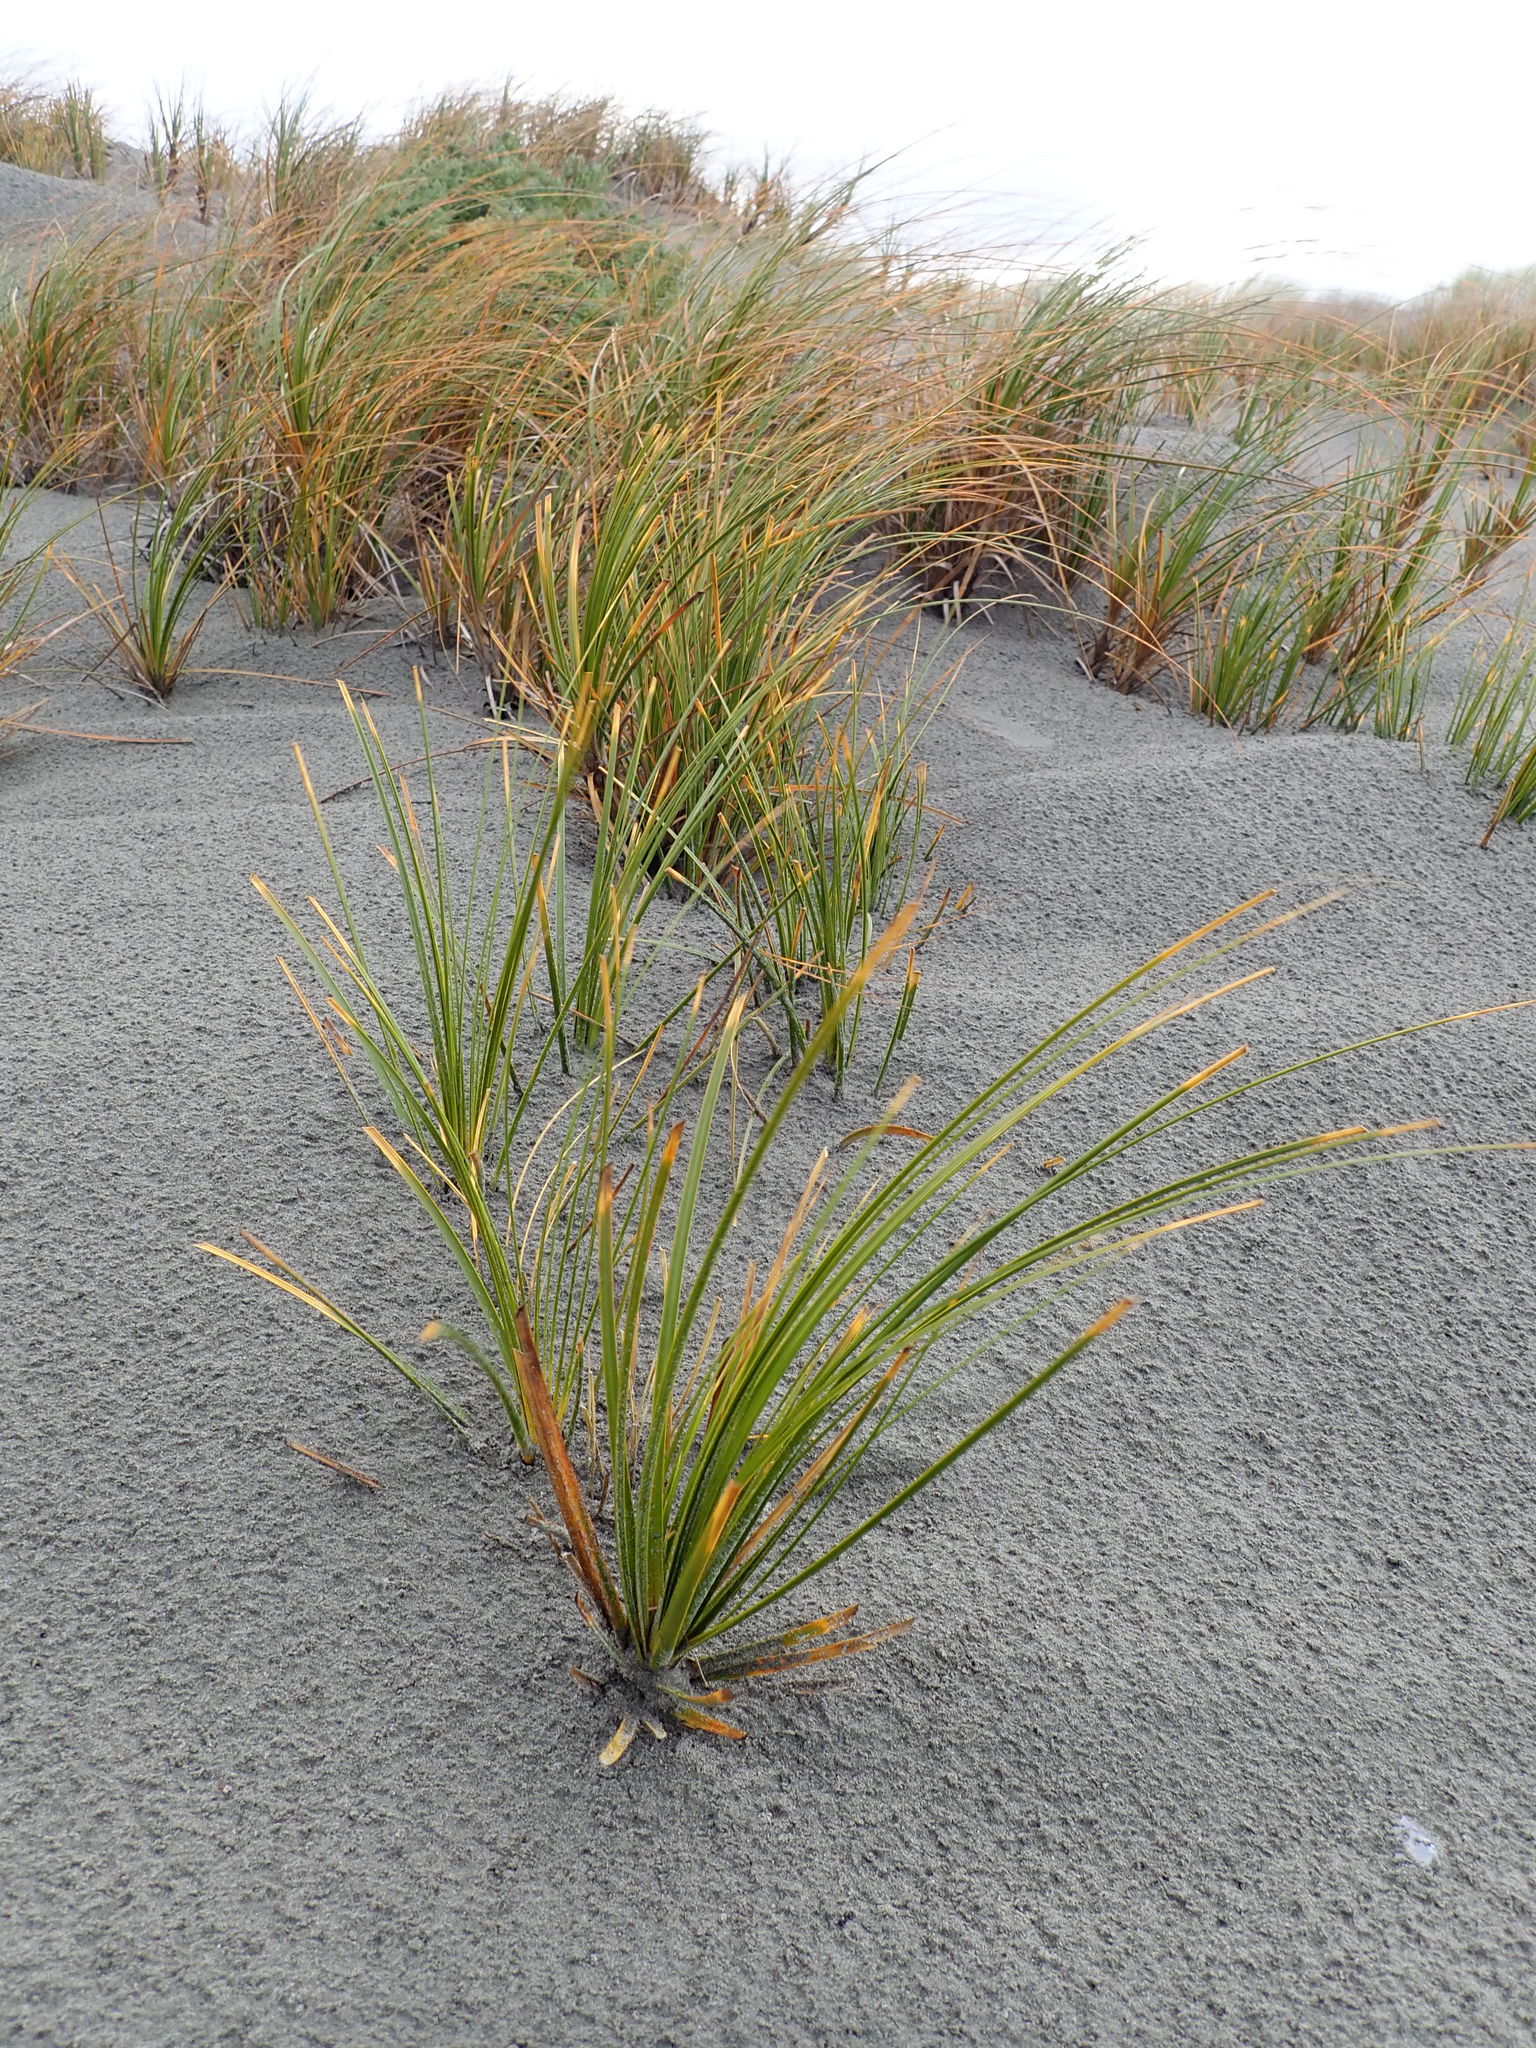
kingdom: Plantae
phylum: Tracheophyta
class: Liliopsida
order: Poales
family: Cyperaceae
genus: Ficinia
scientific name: Ficinia spiralis
